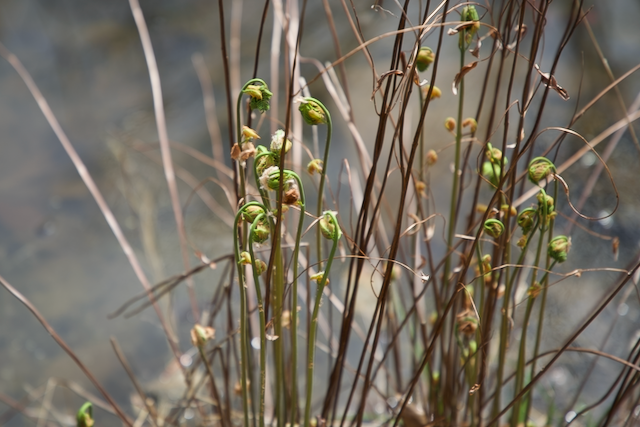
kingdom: Plantae
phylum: Tracheophyta
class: Polypodiopsida
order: Osmundales
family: Osmundaceae
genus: Osmunda
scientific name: Osmunda spectabilis
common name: American royal fern
